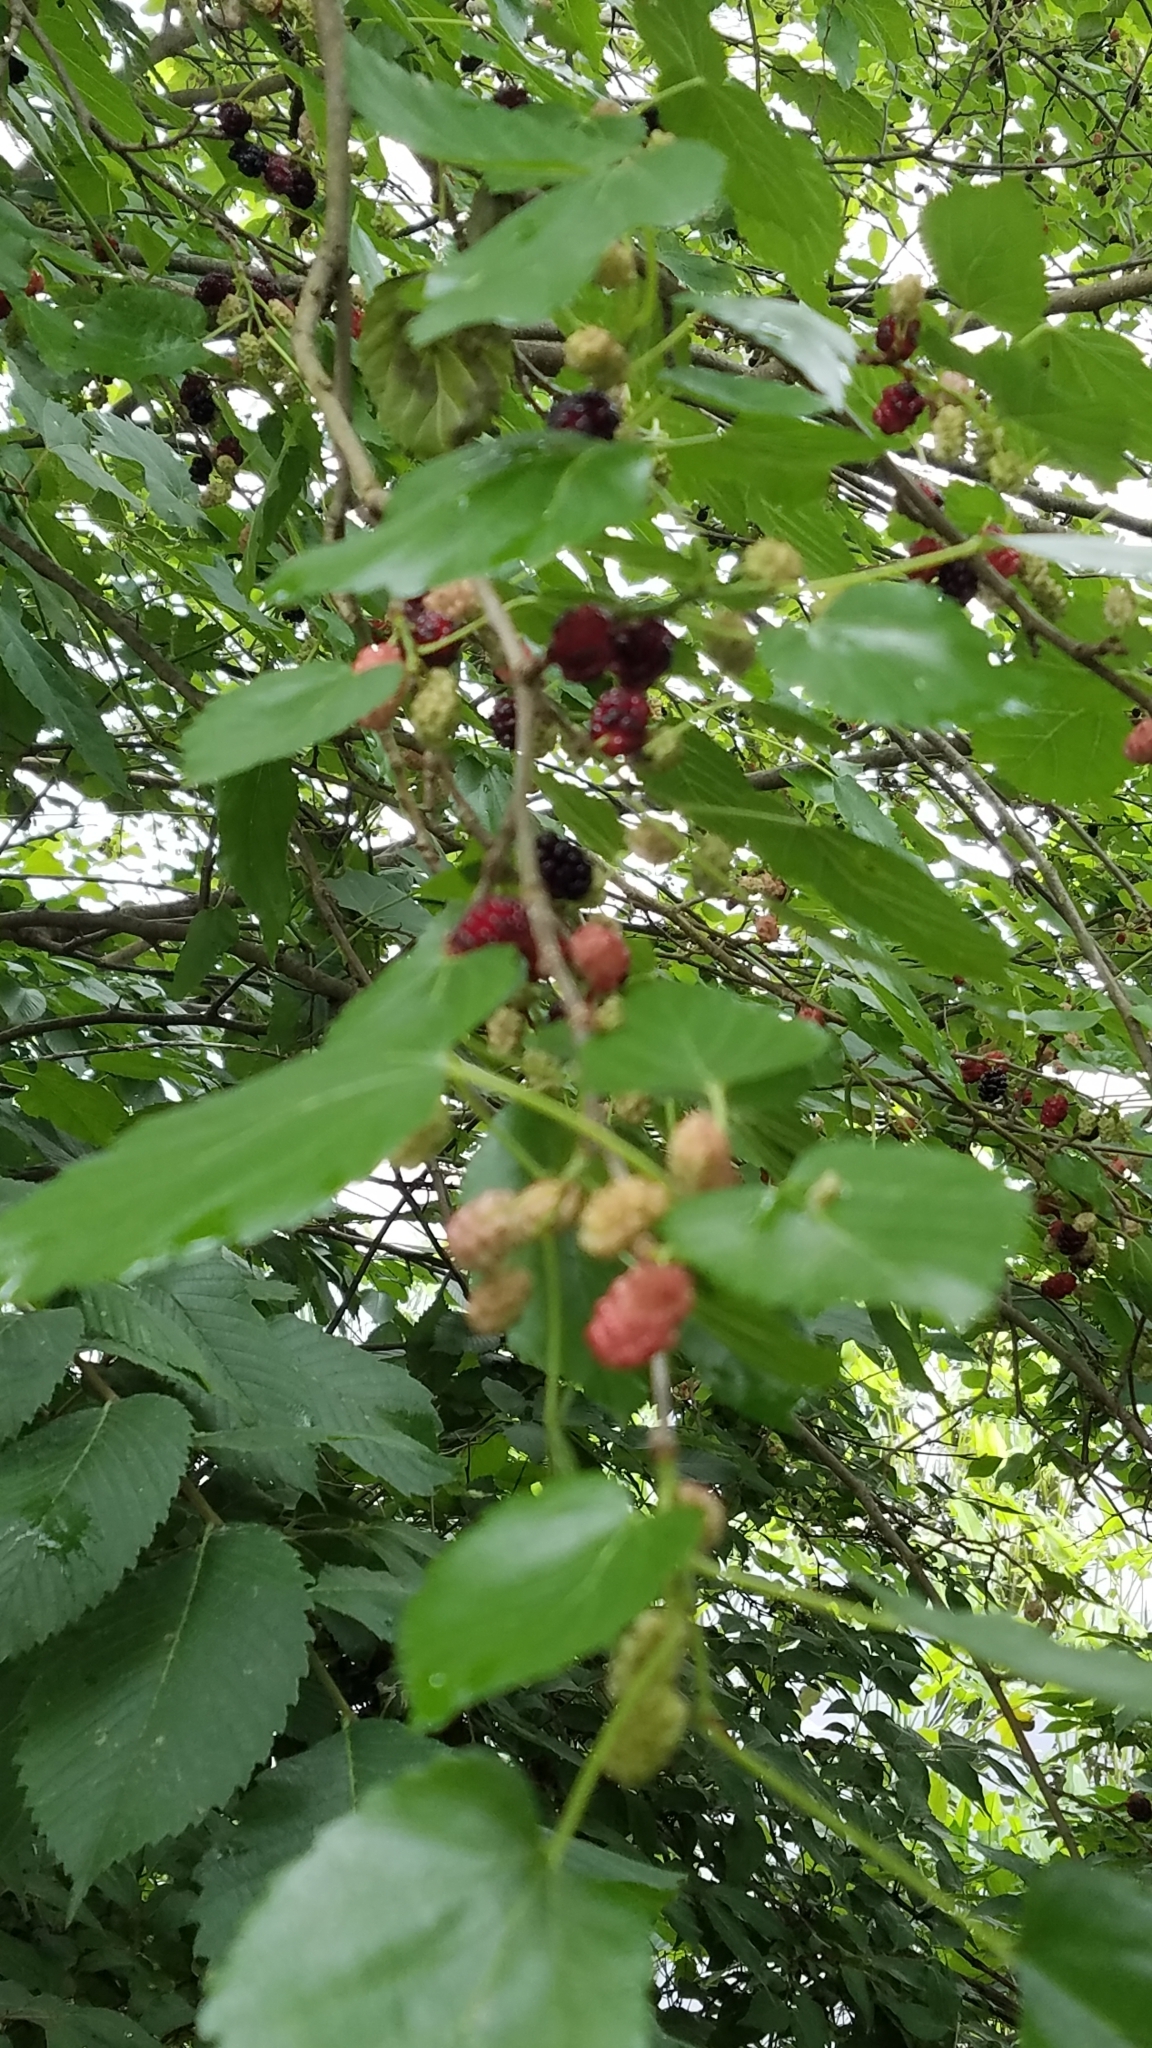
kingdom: Plantae
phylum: Tracheophyta
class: Magnoliopsida
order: Rosales
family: Moraceae
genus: Morus
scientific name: Morus alba
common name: White mulberry
